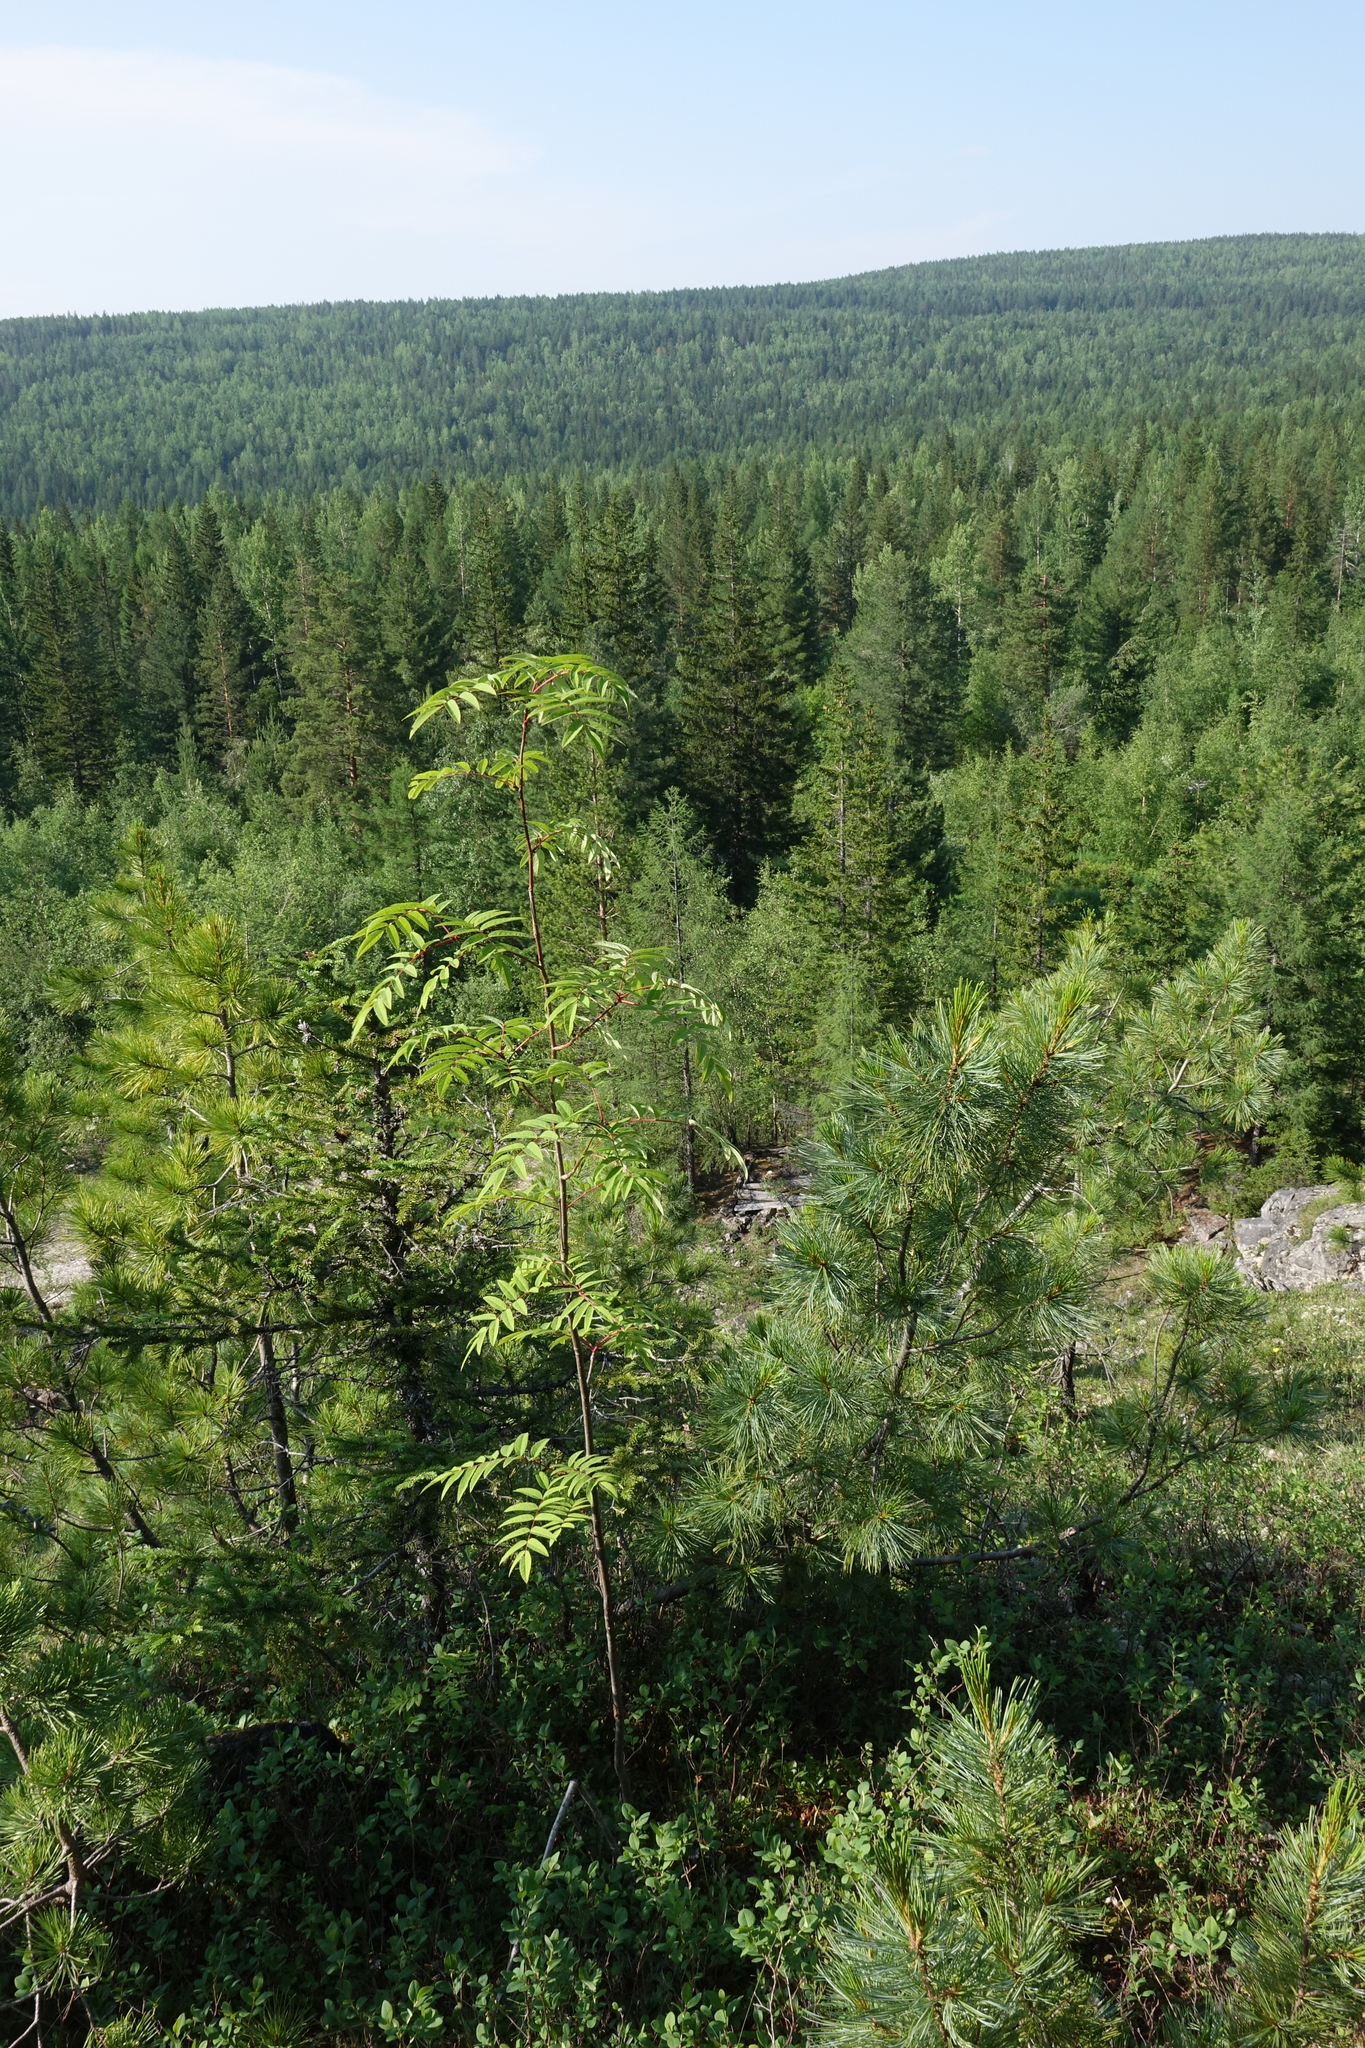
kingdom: Plantae
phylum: Tracheophyta
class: Magnoliopsida
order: Rosales
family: Rosaceae
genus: Sorbus
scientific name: Sorbus aucuparia
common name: Rowan
